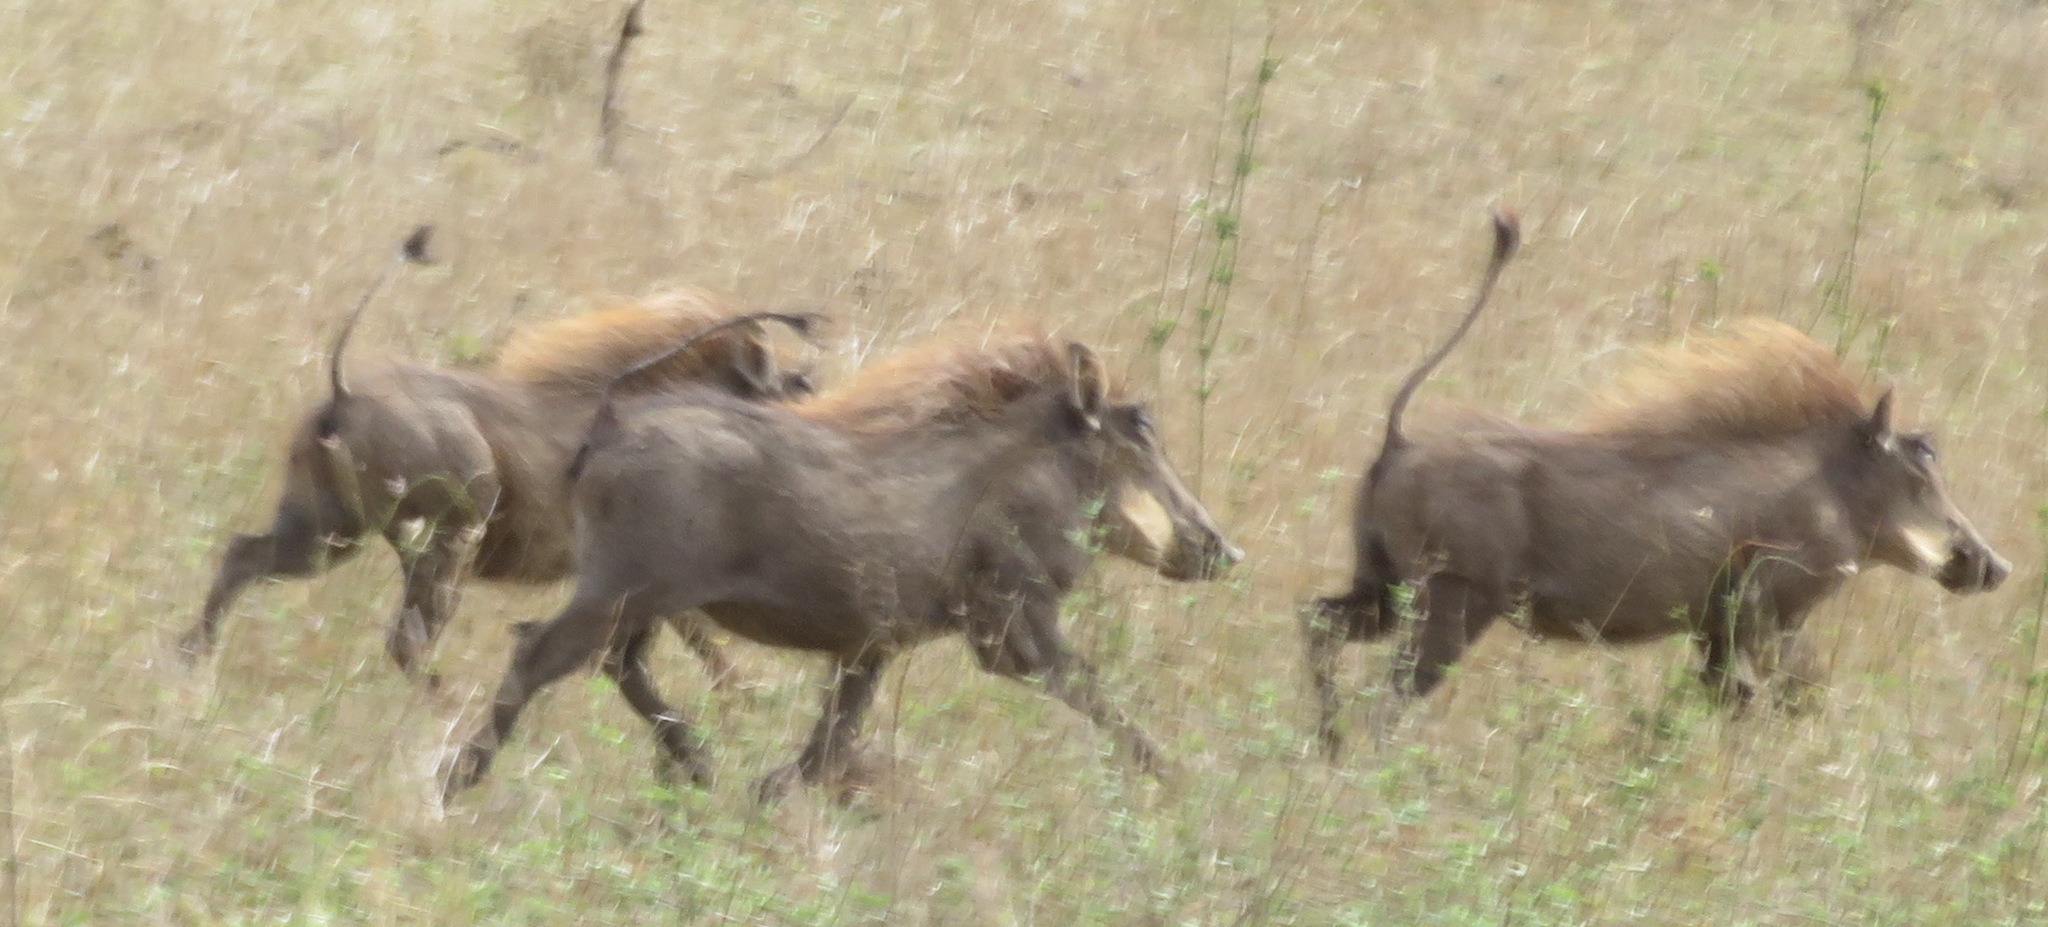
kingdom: Animalia
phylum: Chordata
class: Mammalia
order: Artiodactyla
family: Suidae
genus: Phacochoerus
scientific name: Phacochoerus africanus
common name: Common warthog
